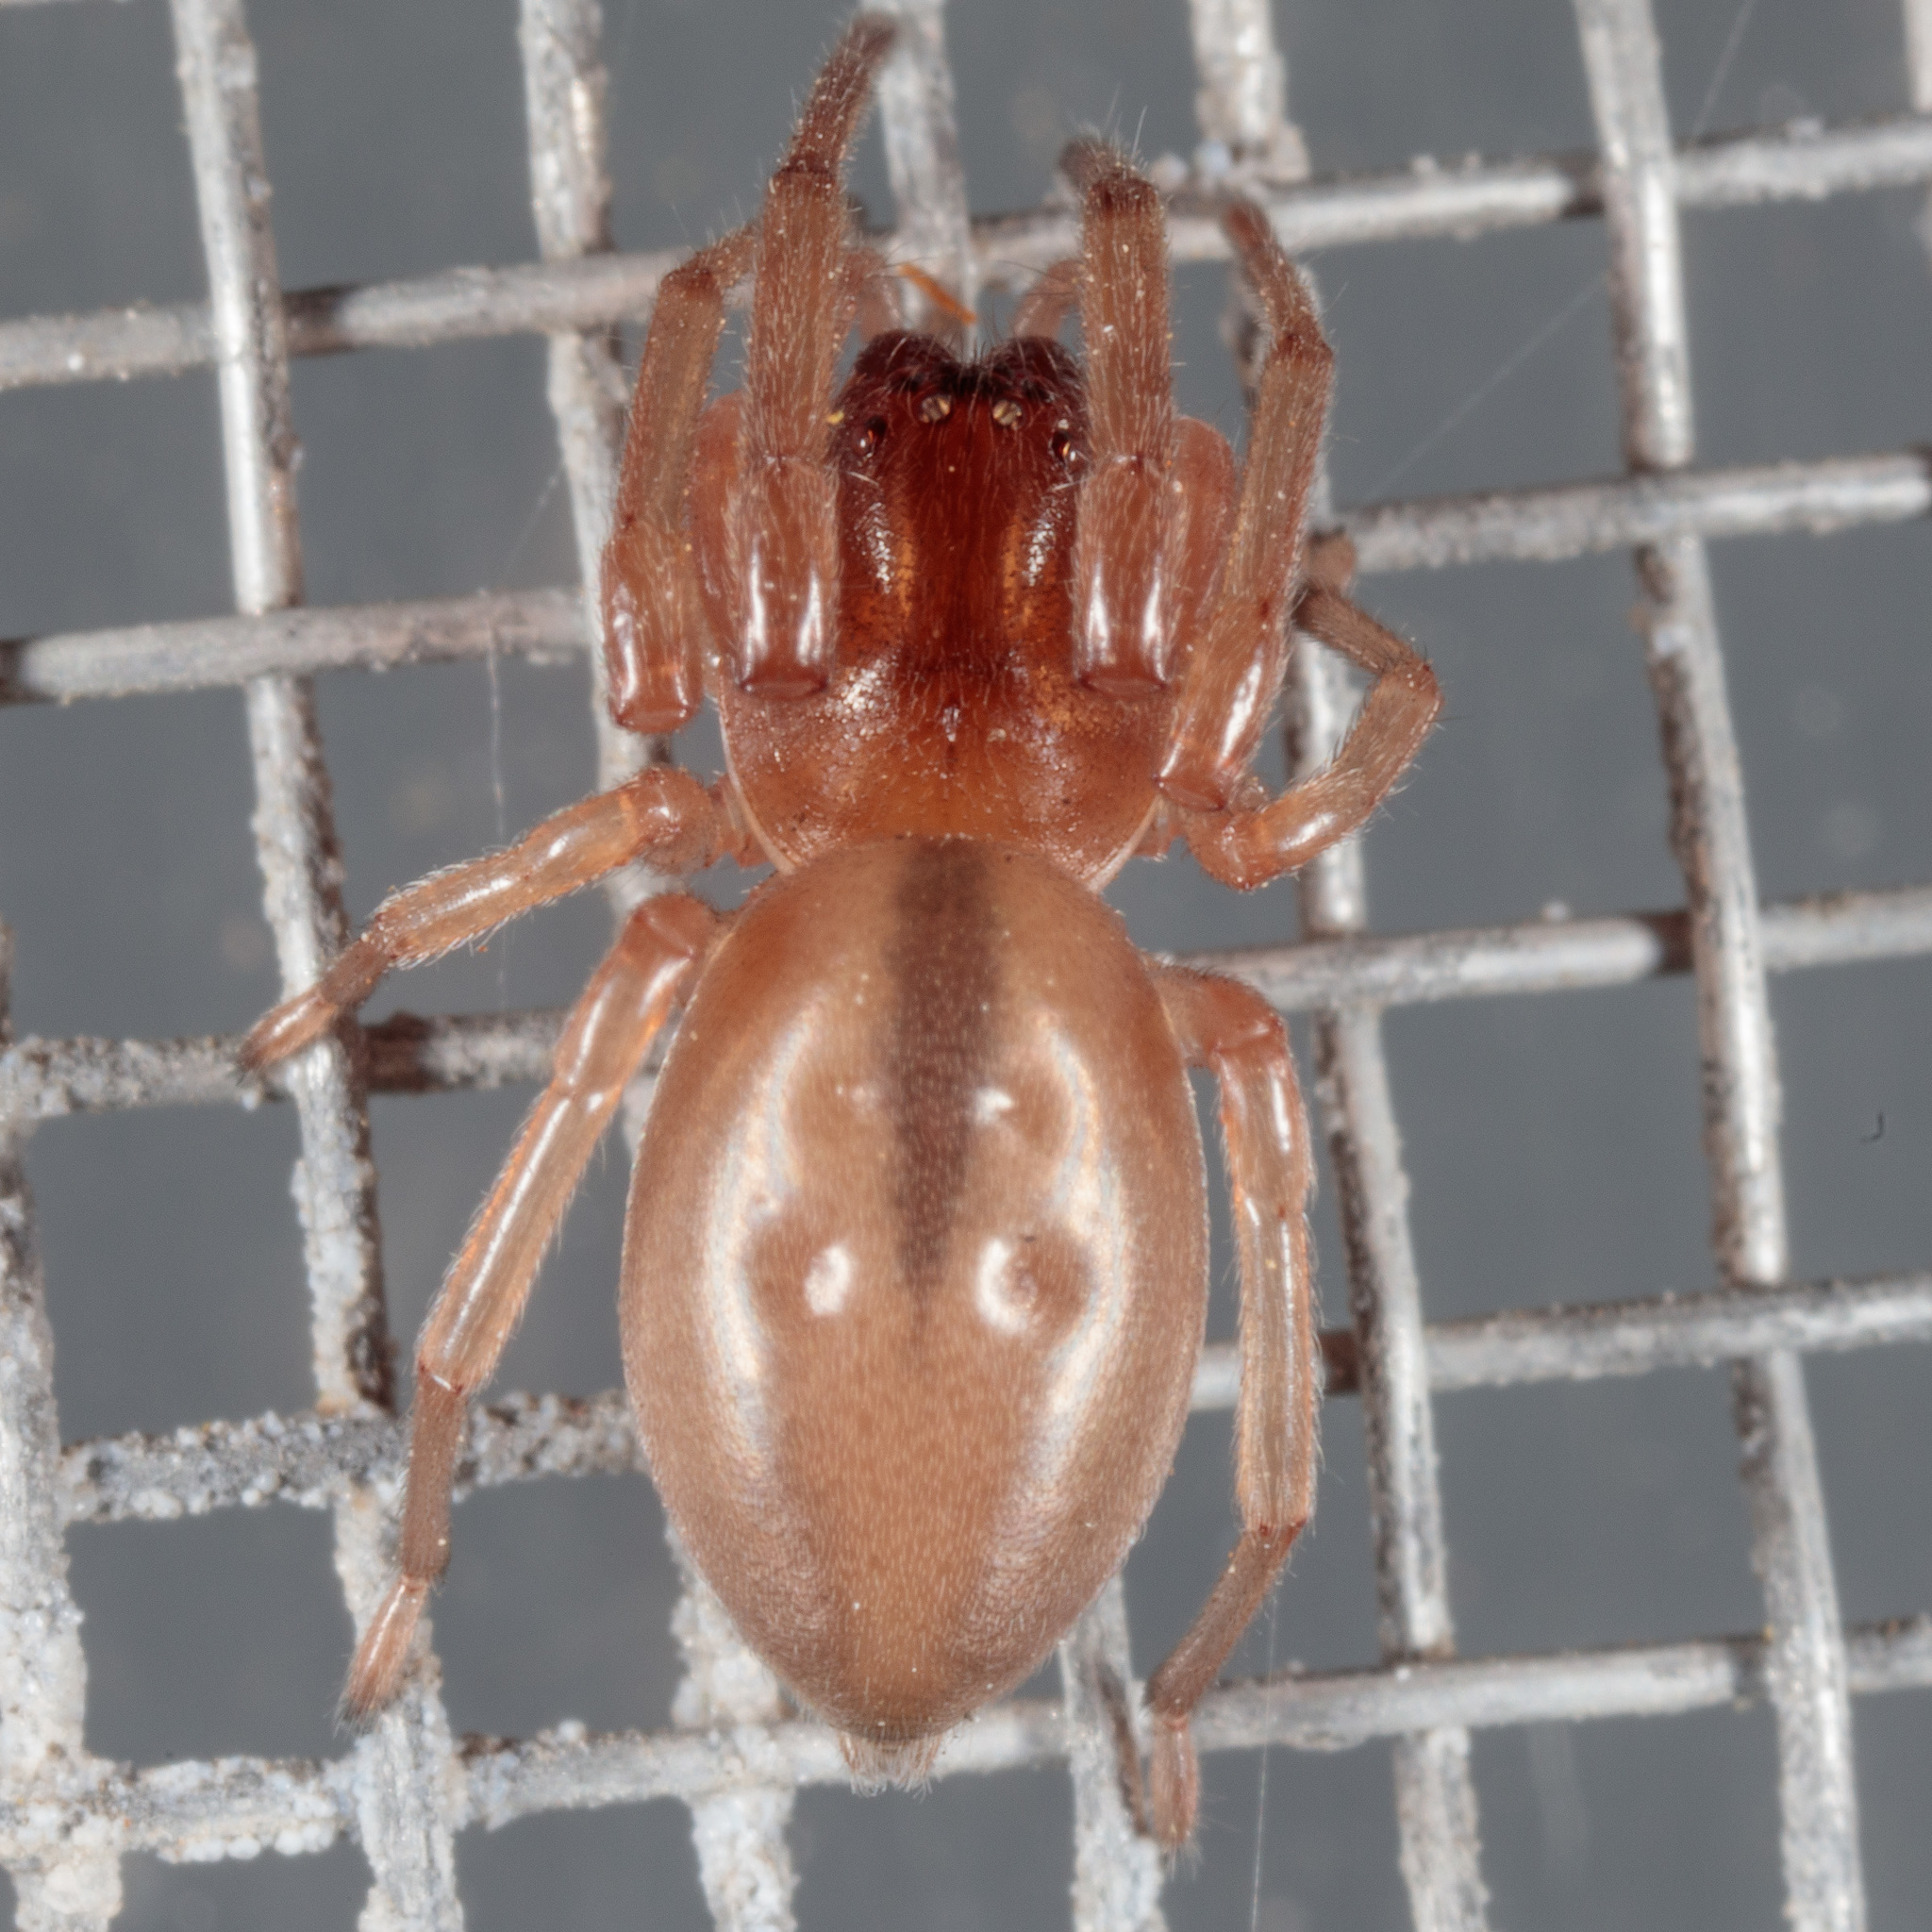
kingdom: Animalia
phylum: Arthropoda
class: Arachnida
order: Araneae
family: Trachelidae
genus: Trachelas
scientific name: Trachelas
